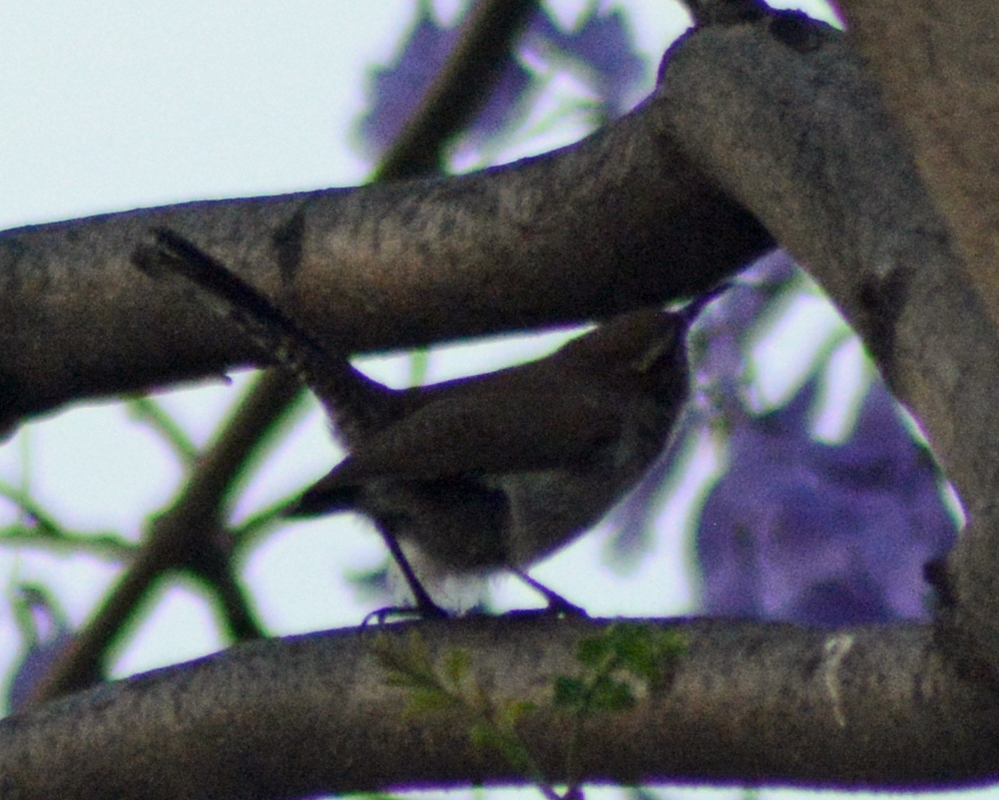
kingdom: Animalia
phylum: Chordata
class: Aves
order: Passeriformes
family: Troglodytidae
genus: Thryomanes
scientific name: Thryomanes bewickii
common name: Bewick's wren
